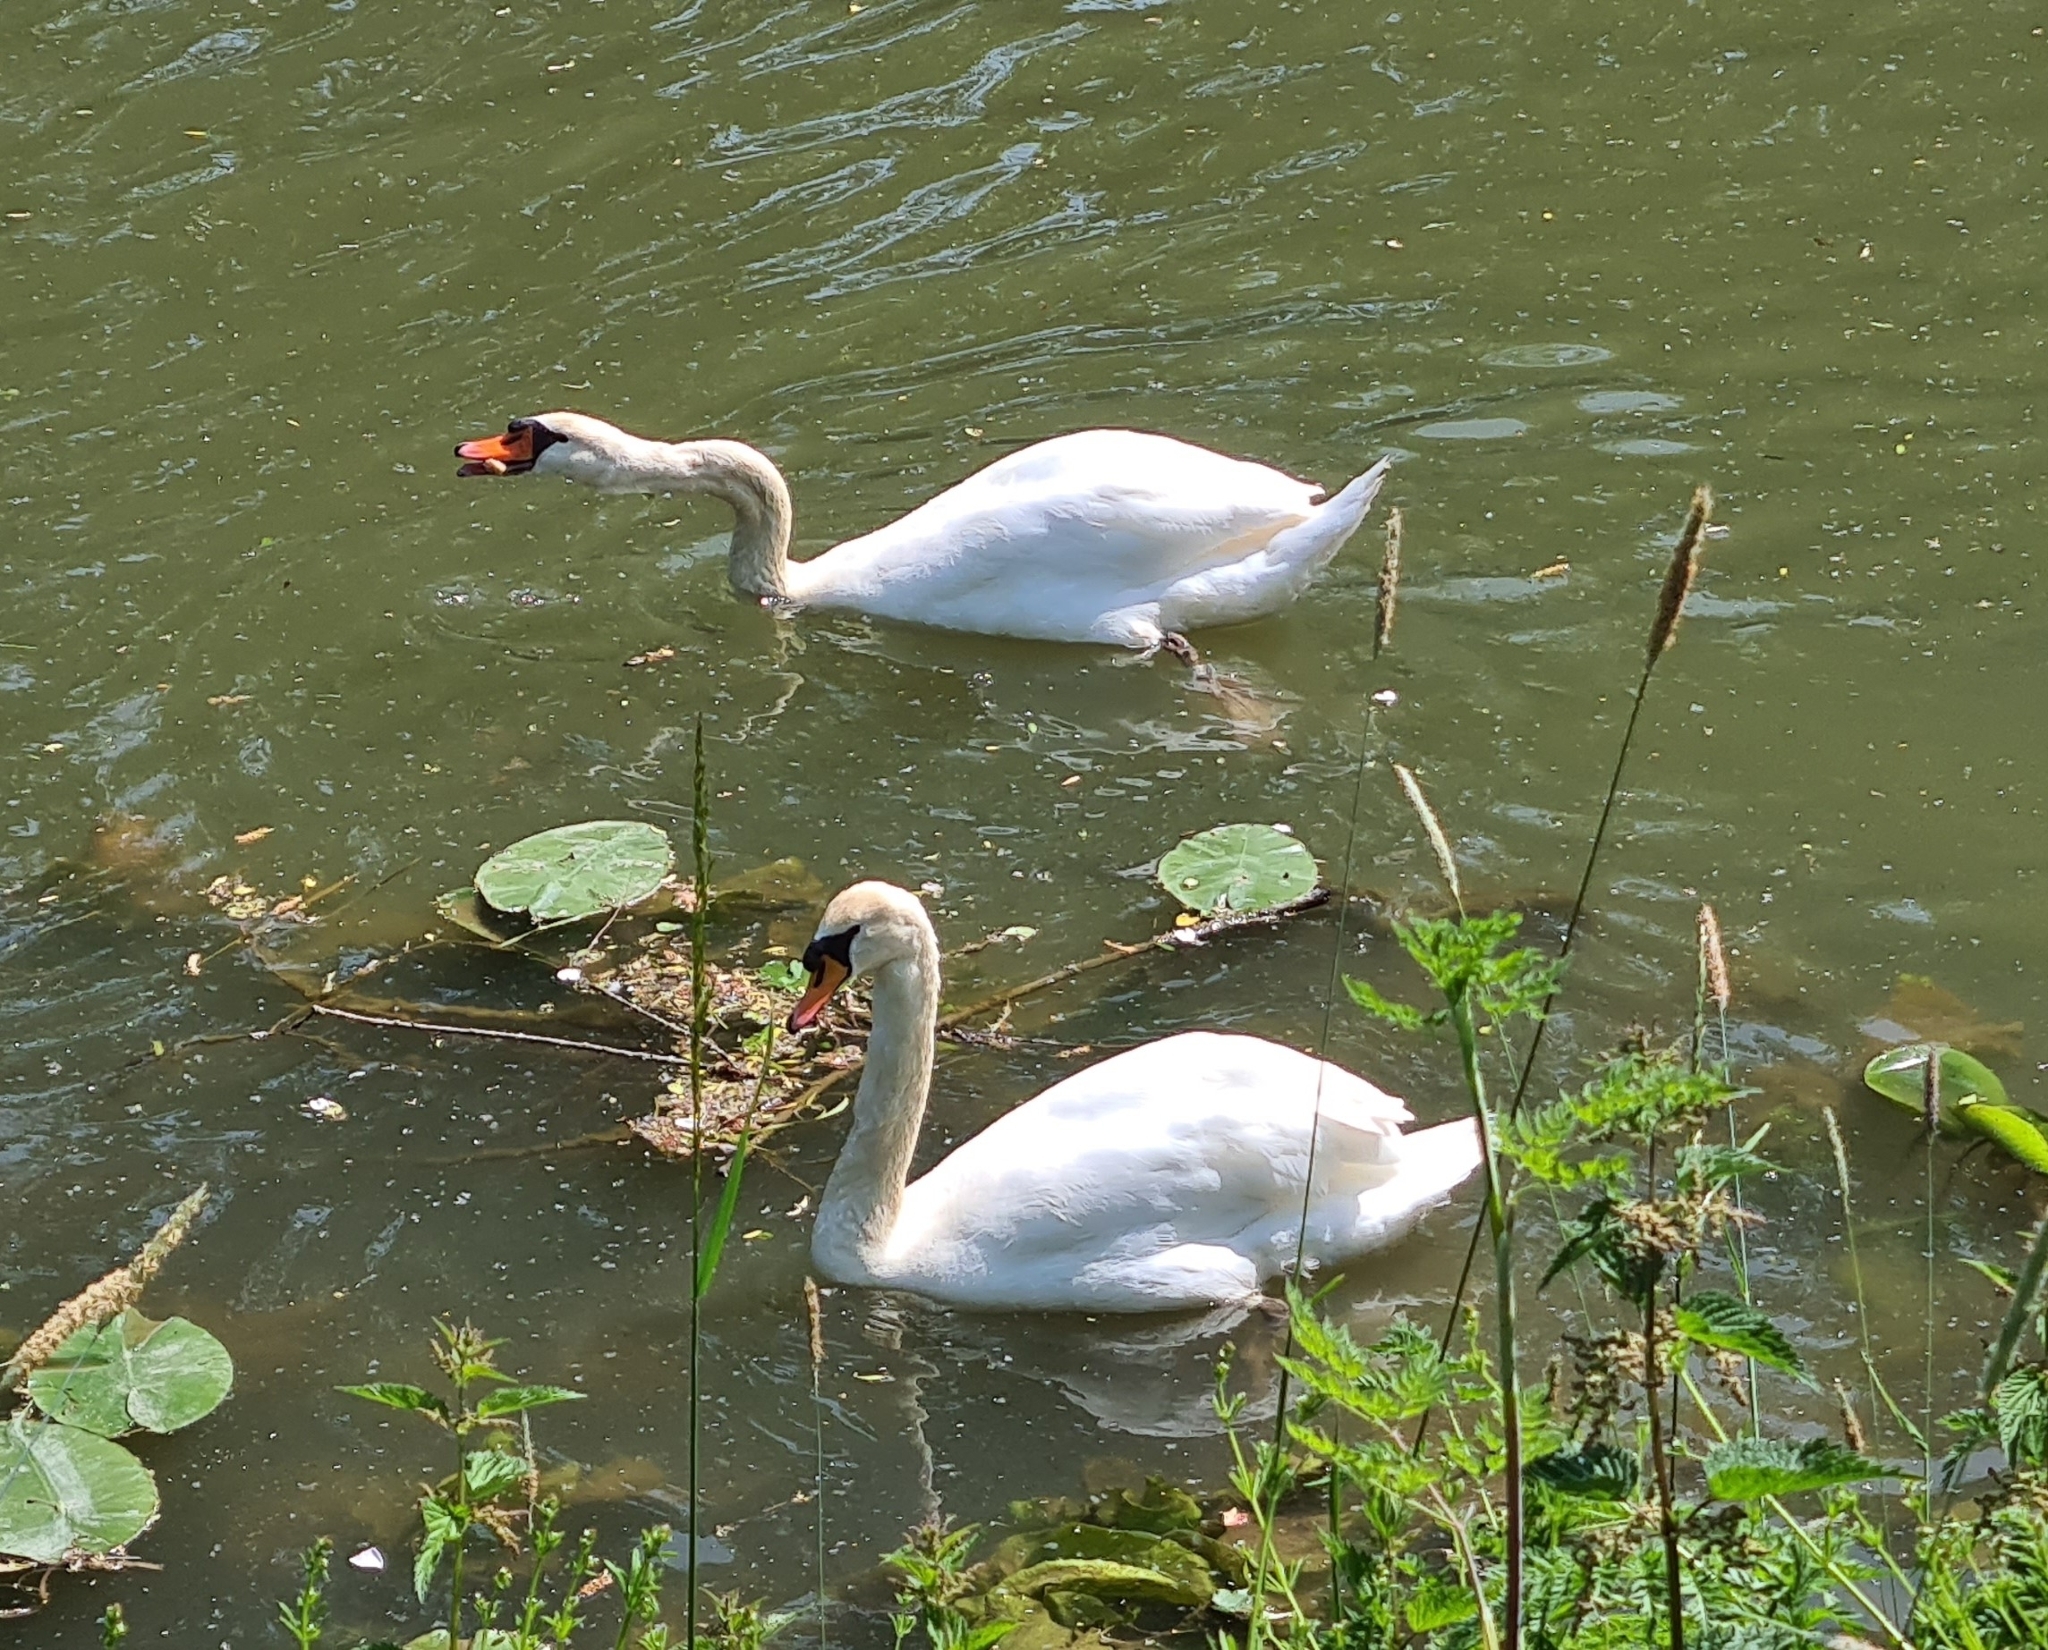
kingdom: Animalia
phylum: Chordata
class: Aves
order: Anseriformes
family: Anatidae
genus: Cygnus
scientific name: Cygnus olor
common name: Mute swan
